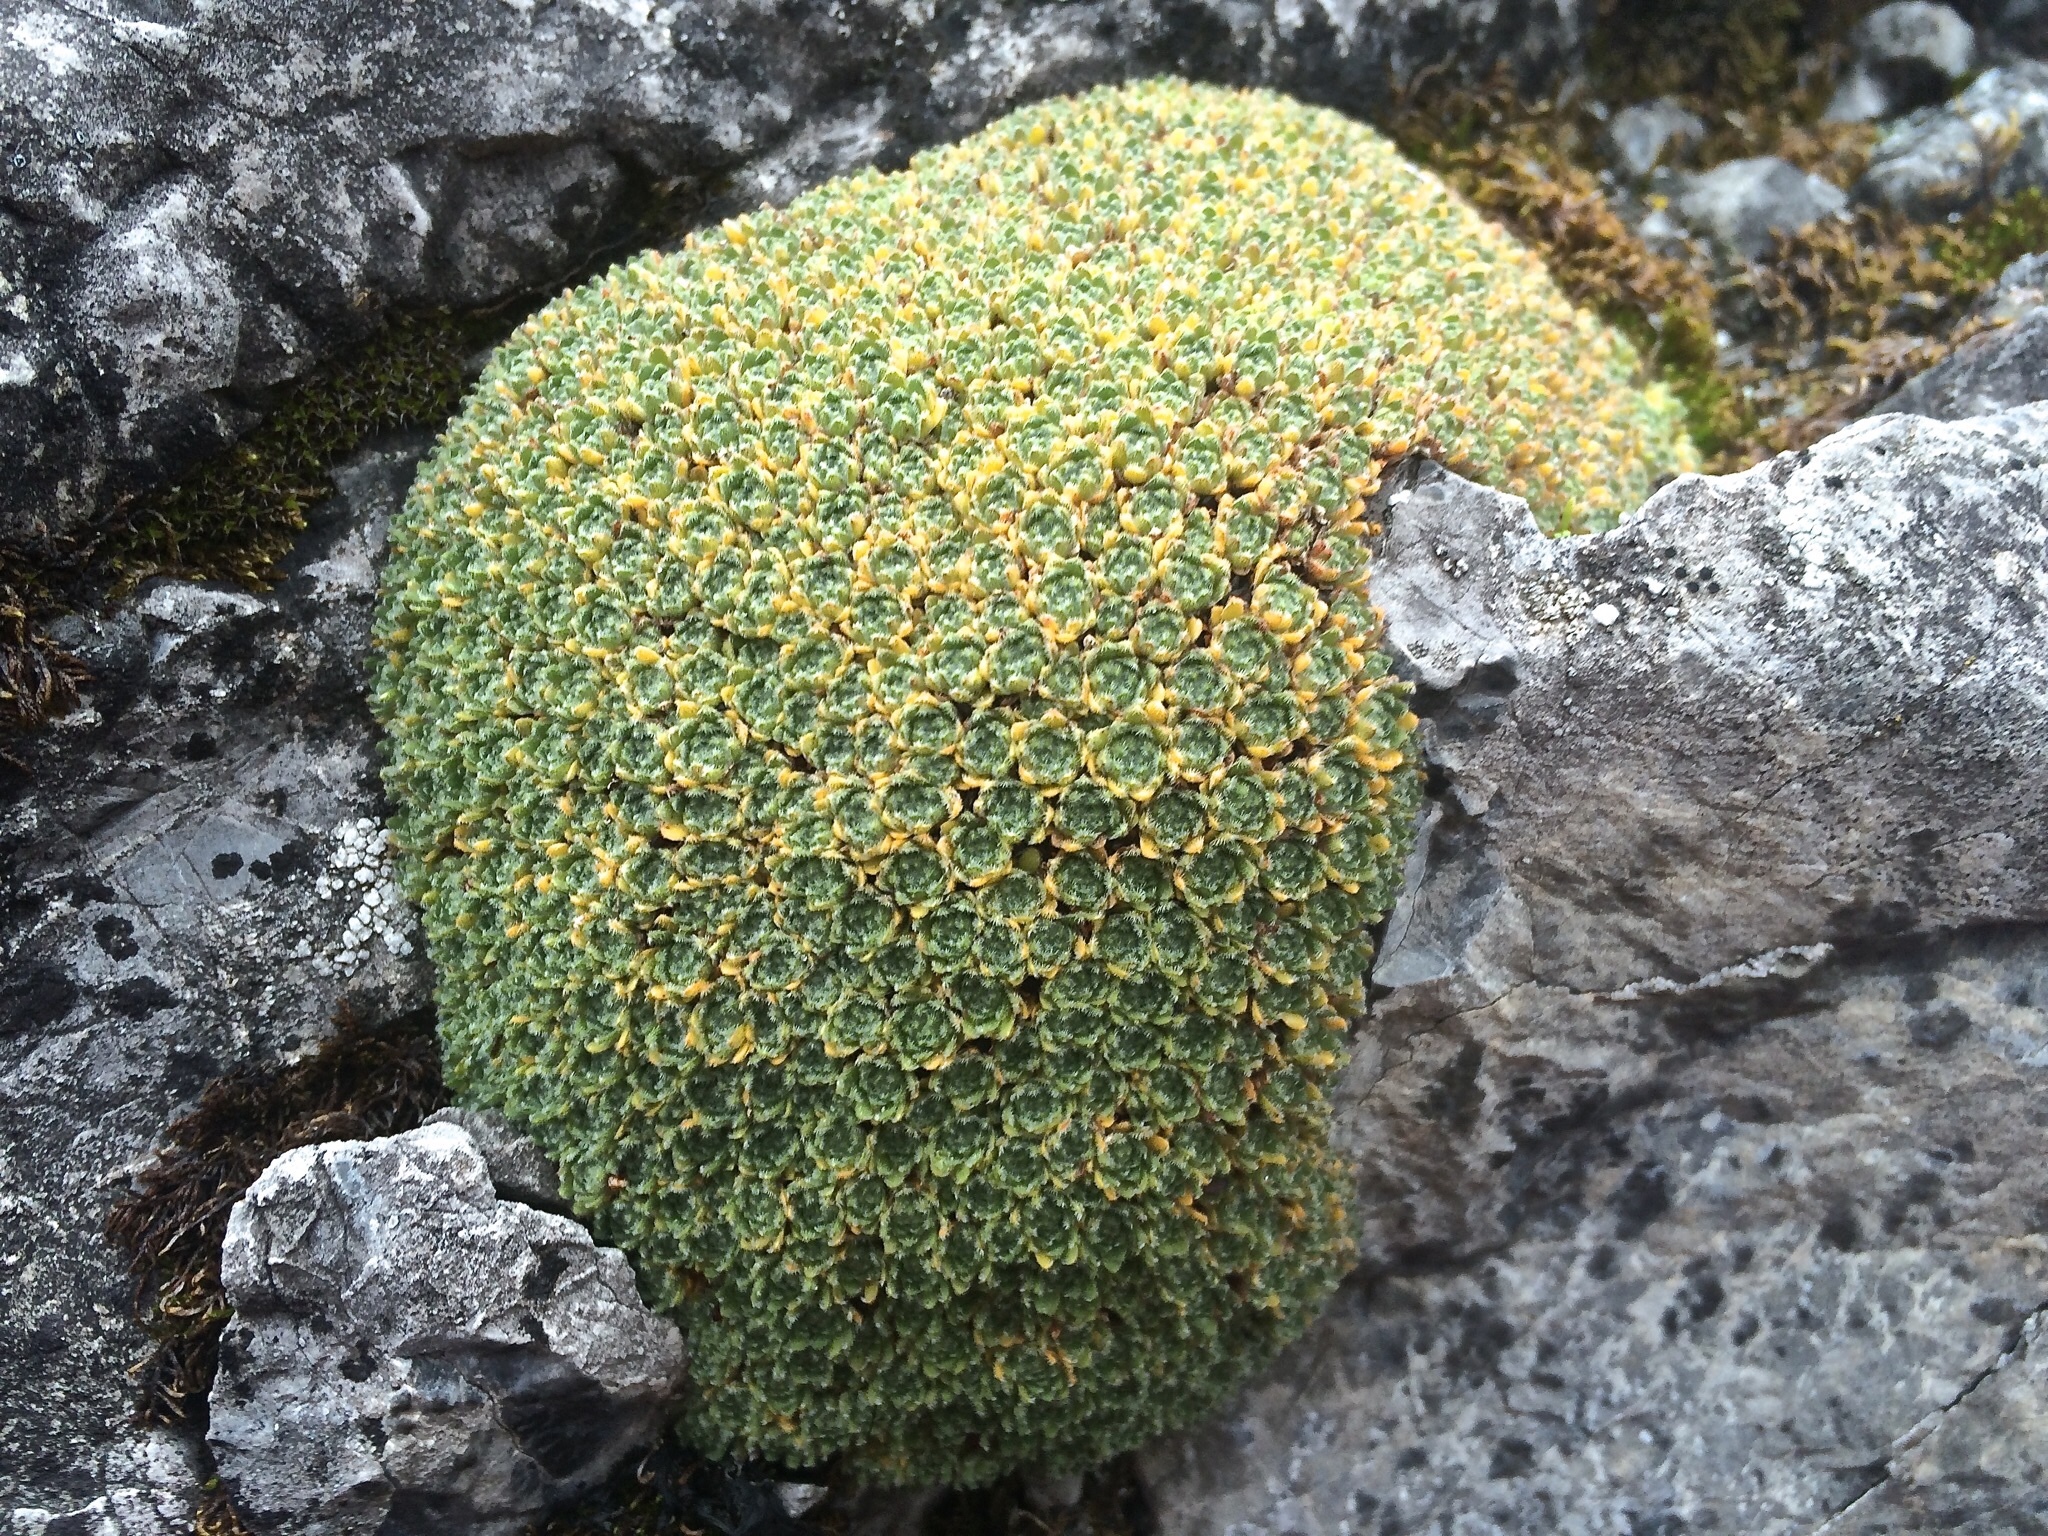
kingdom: Plantae
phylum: Tracheophyta
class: Magnoliopsida
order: Ericales
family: Primulaceae
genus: Androsace
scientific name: Androsace helvetica
